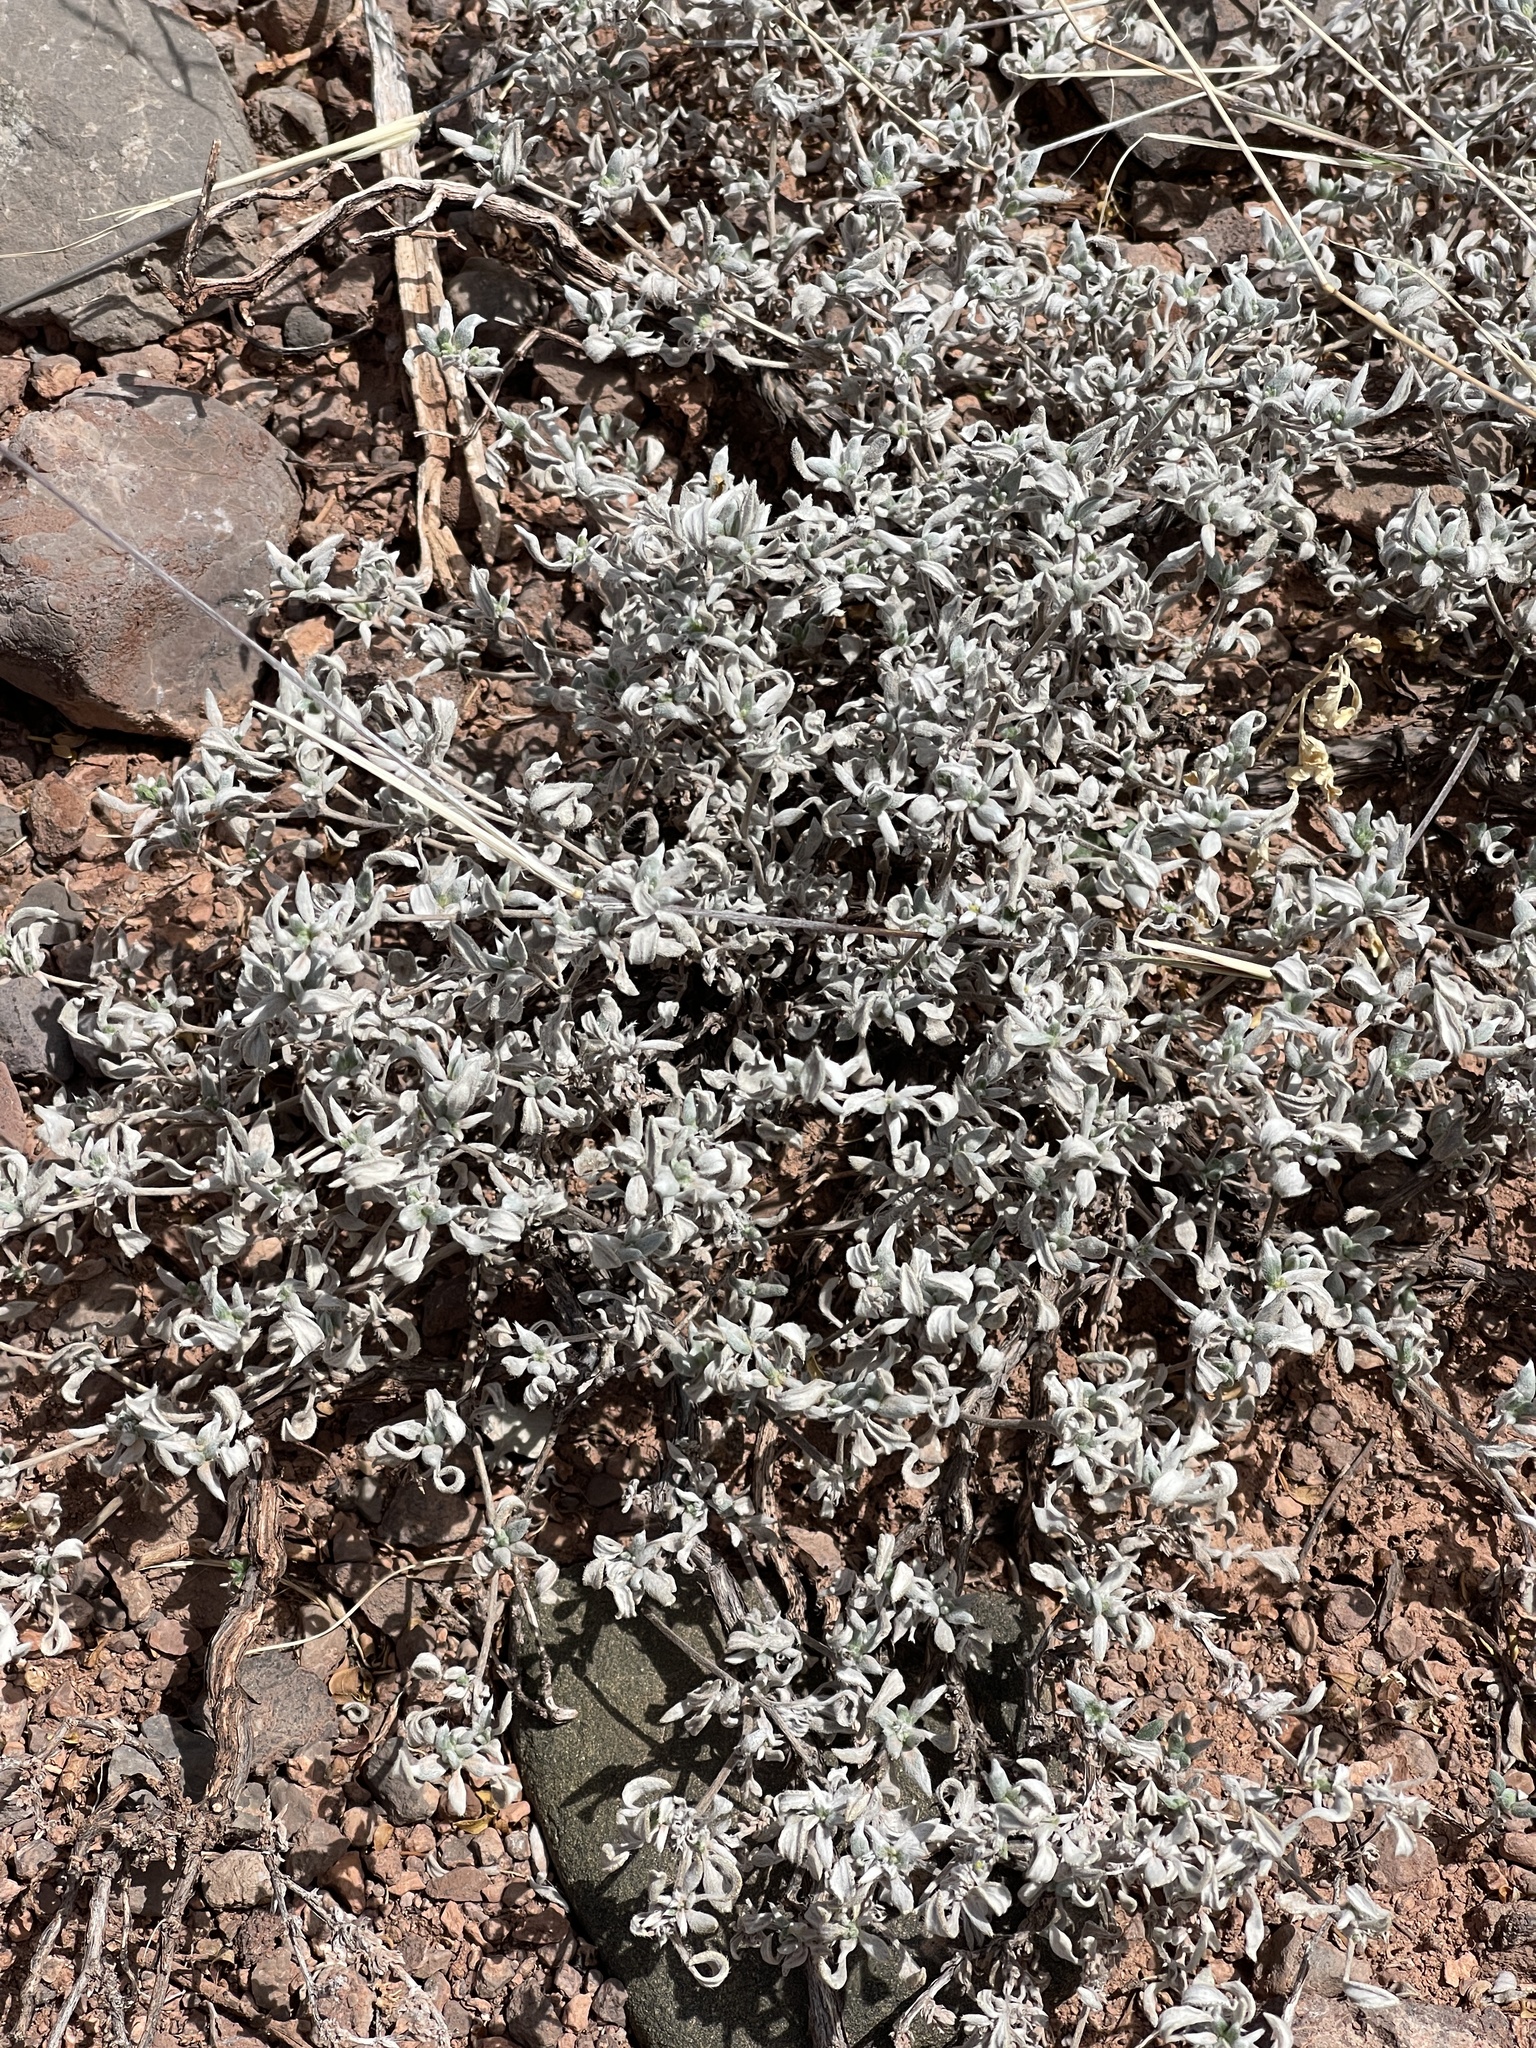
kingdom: Plantae
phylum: Tracheophyta
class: Magnoliopsida
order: Boraginales
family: Ehretiaceae
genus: Tiquilia
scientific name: Tiquilia canescens
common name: Hairy tiquilia
